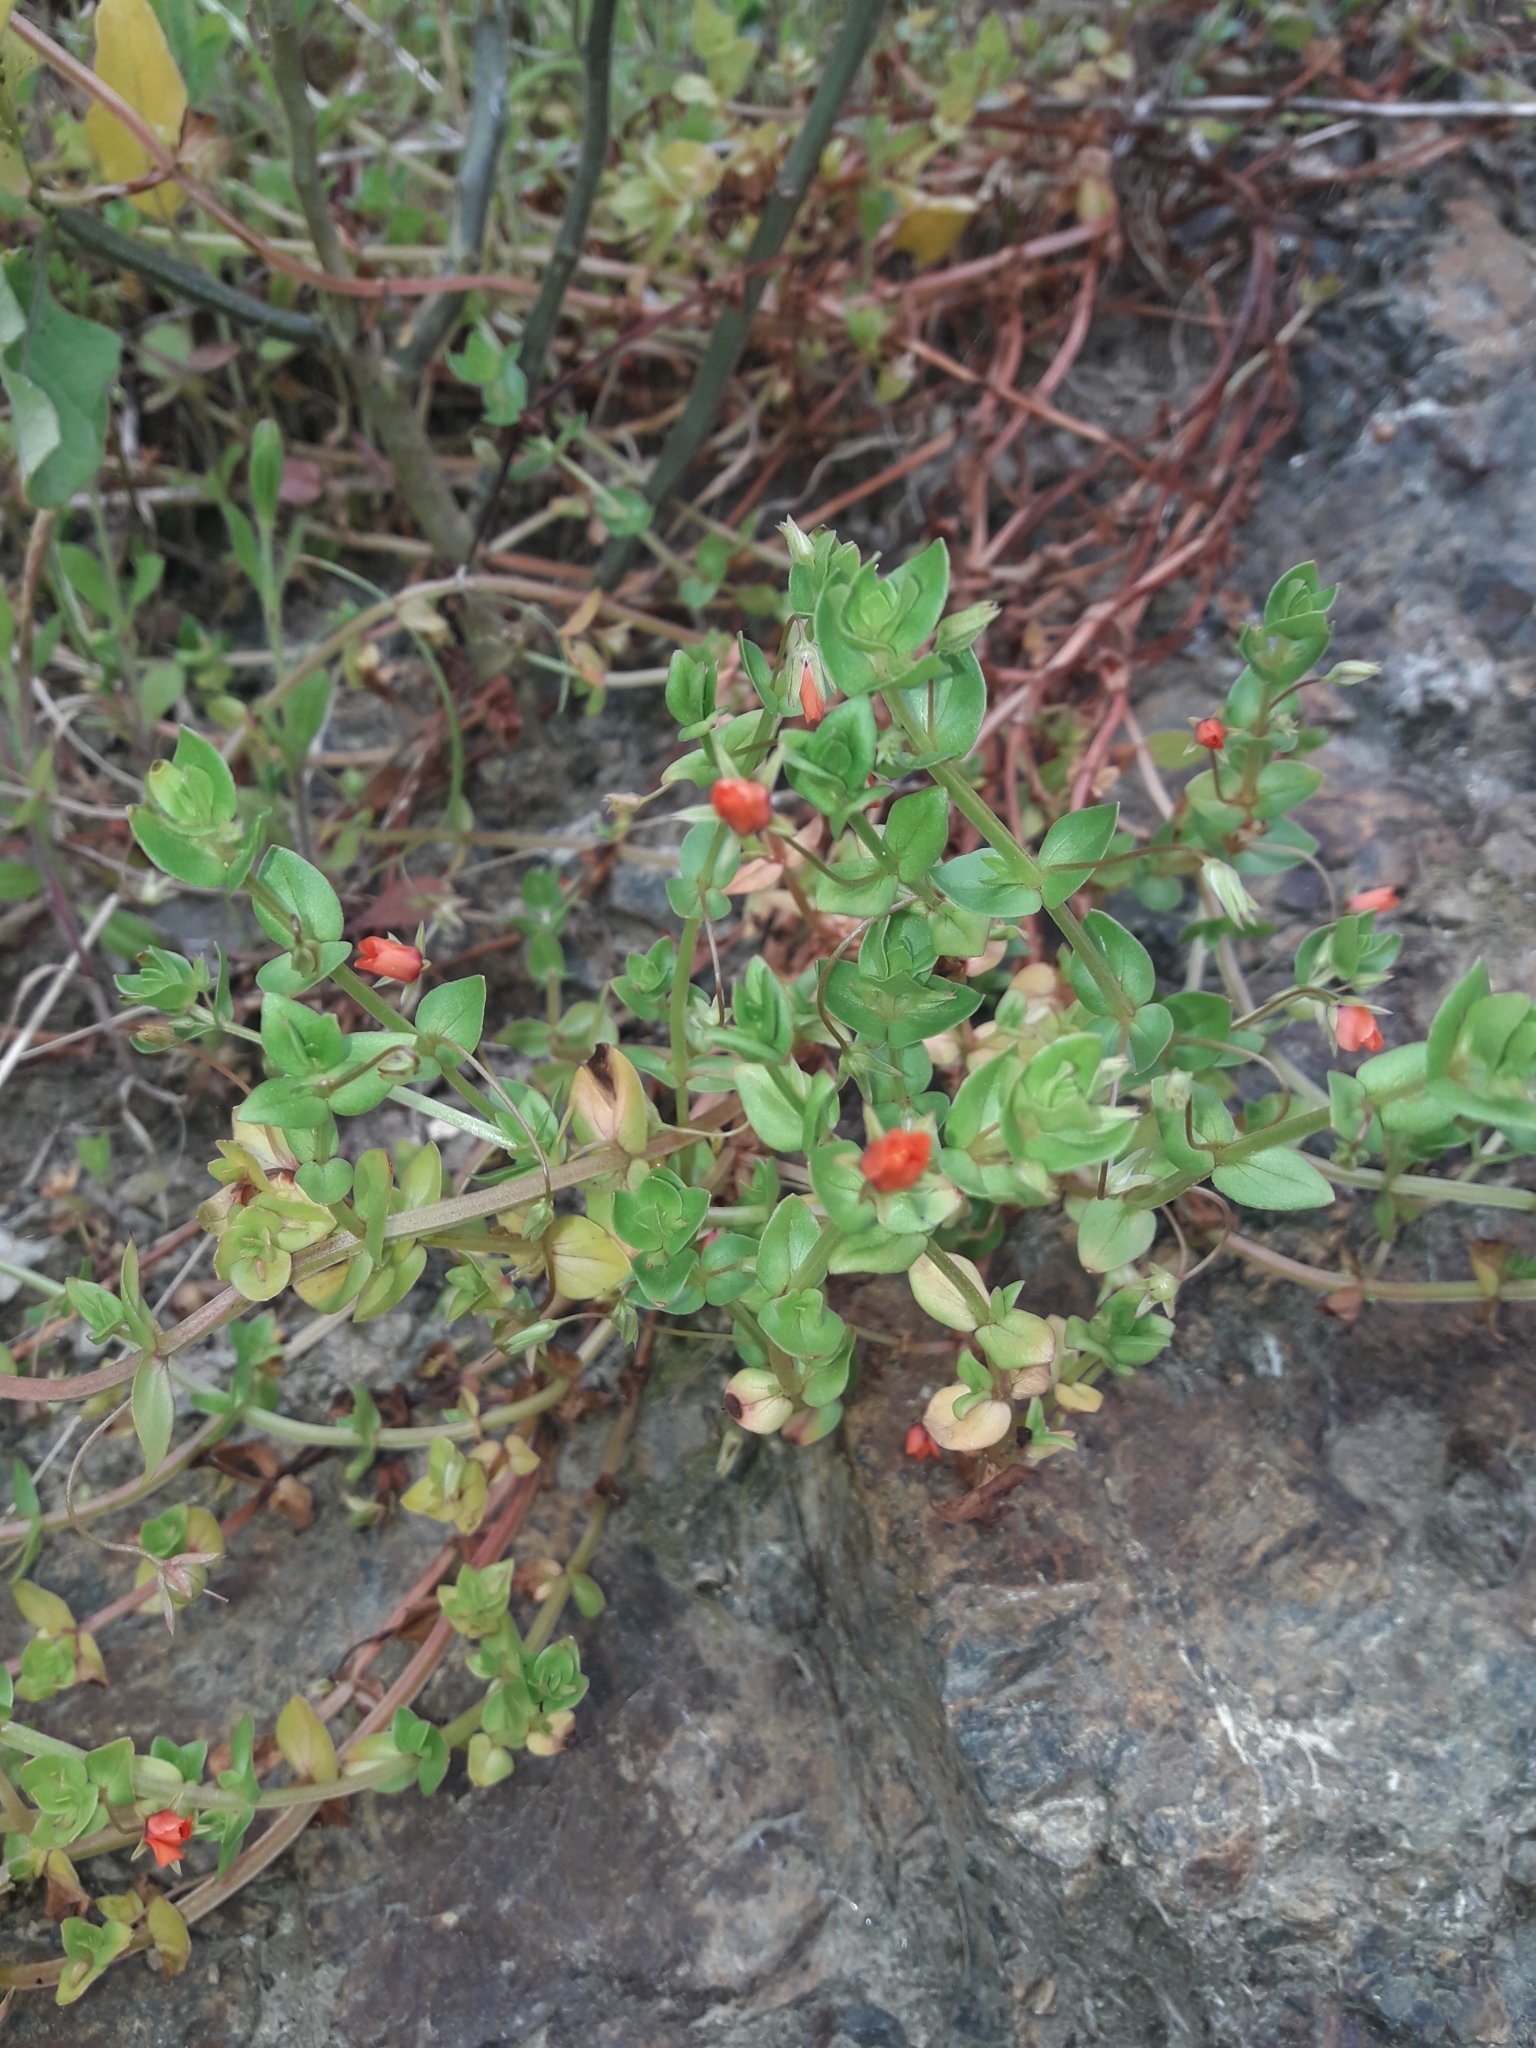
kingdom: Plantae
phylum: Tracheophyta
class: Magnoliopsida
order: Ericales
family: Primulaceae
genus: Lysimachia
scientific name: Lysimachia arvensis
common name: Scarlet pimpernel
